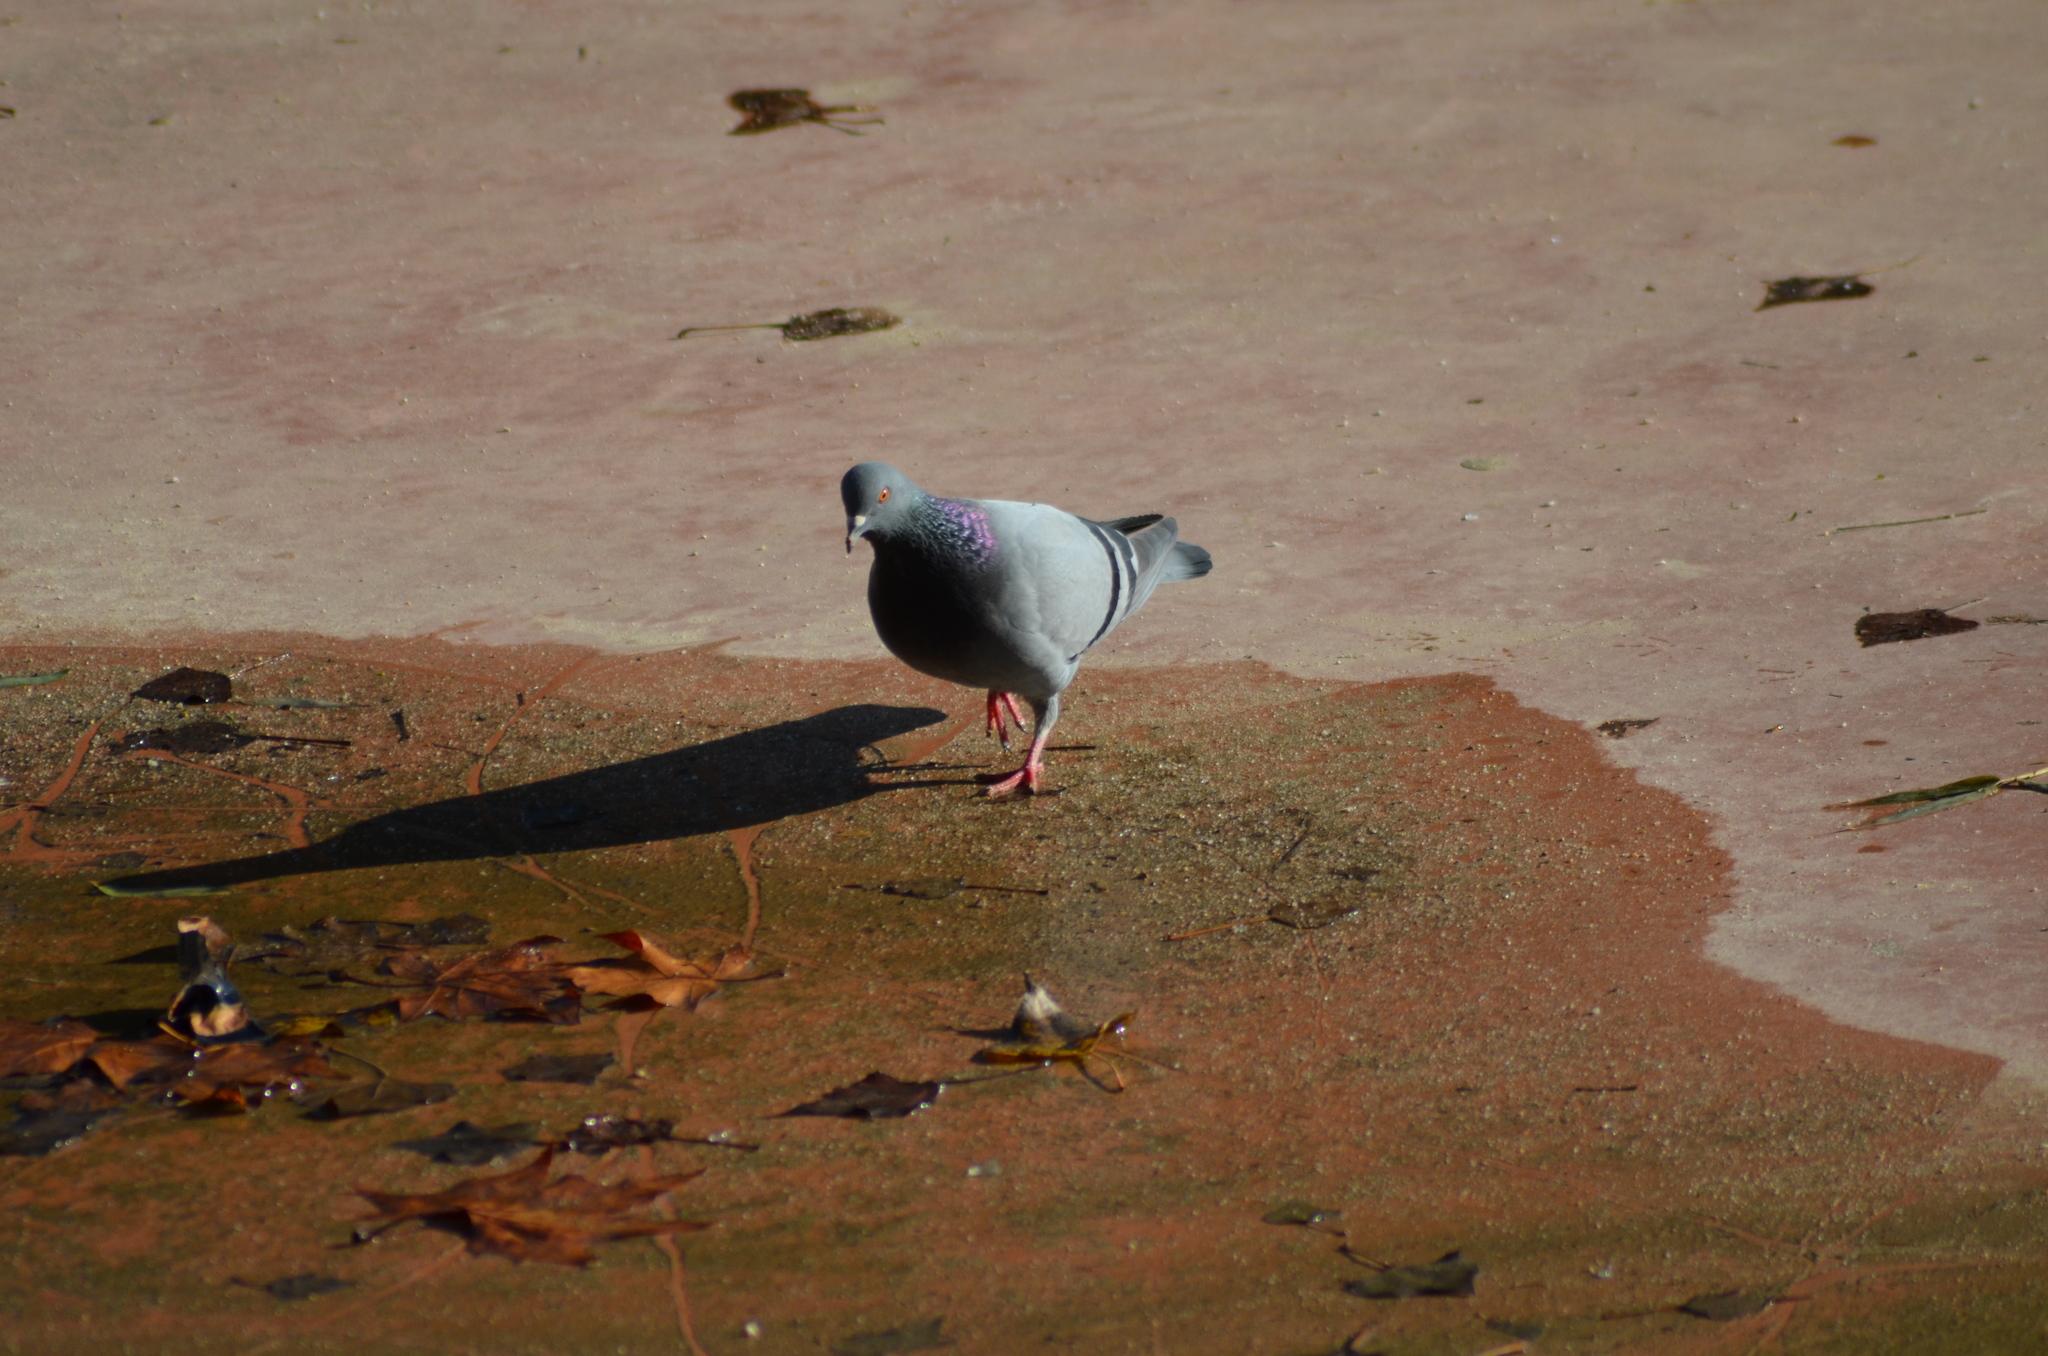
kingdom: Animalia
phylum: Chordata
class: Aves
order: Columbiformes
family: Columbidae
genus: Columba
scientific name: Columba livia
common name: Rock pigeon
